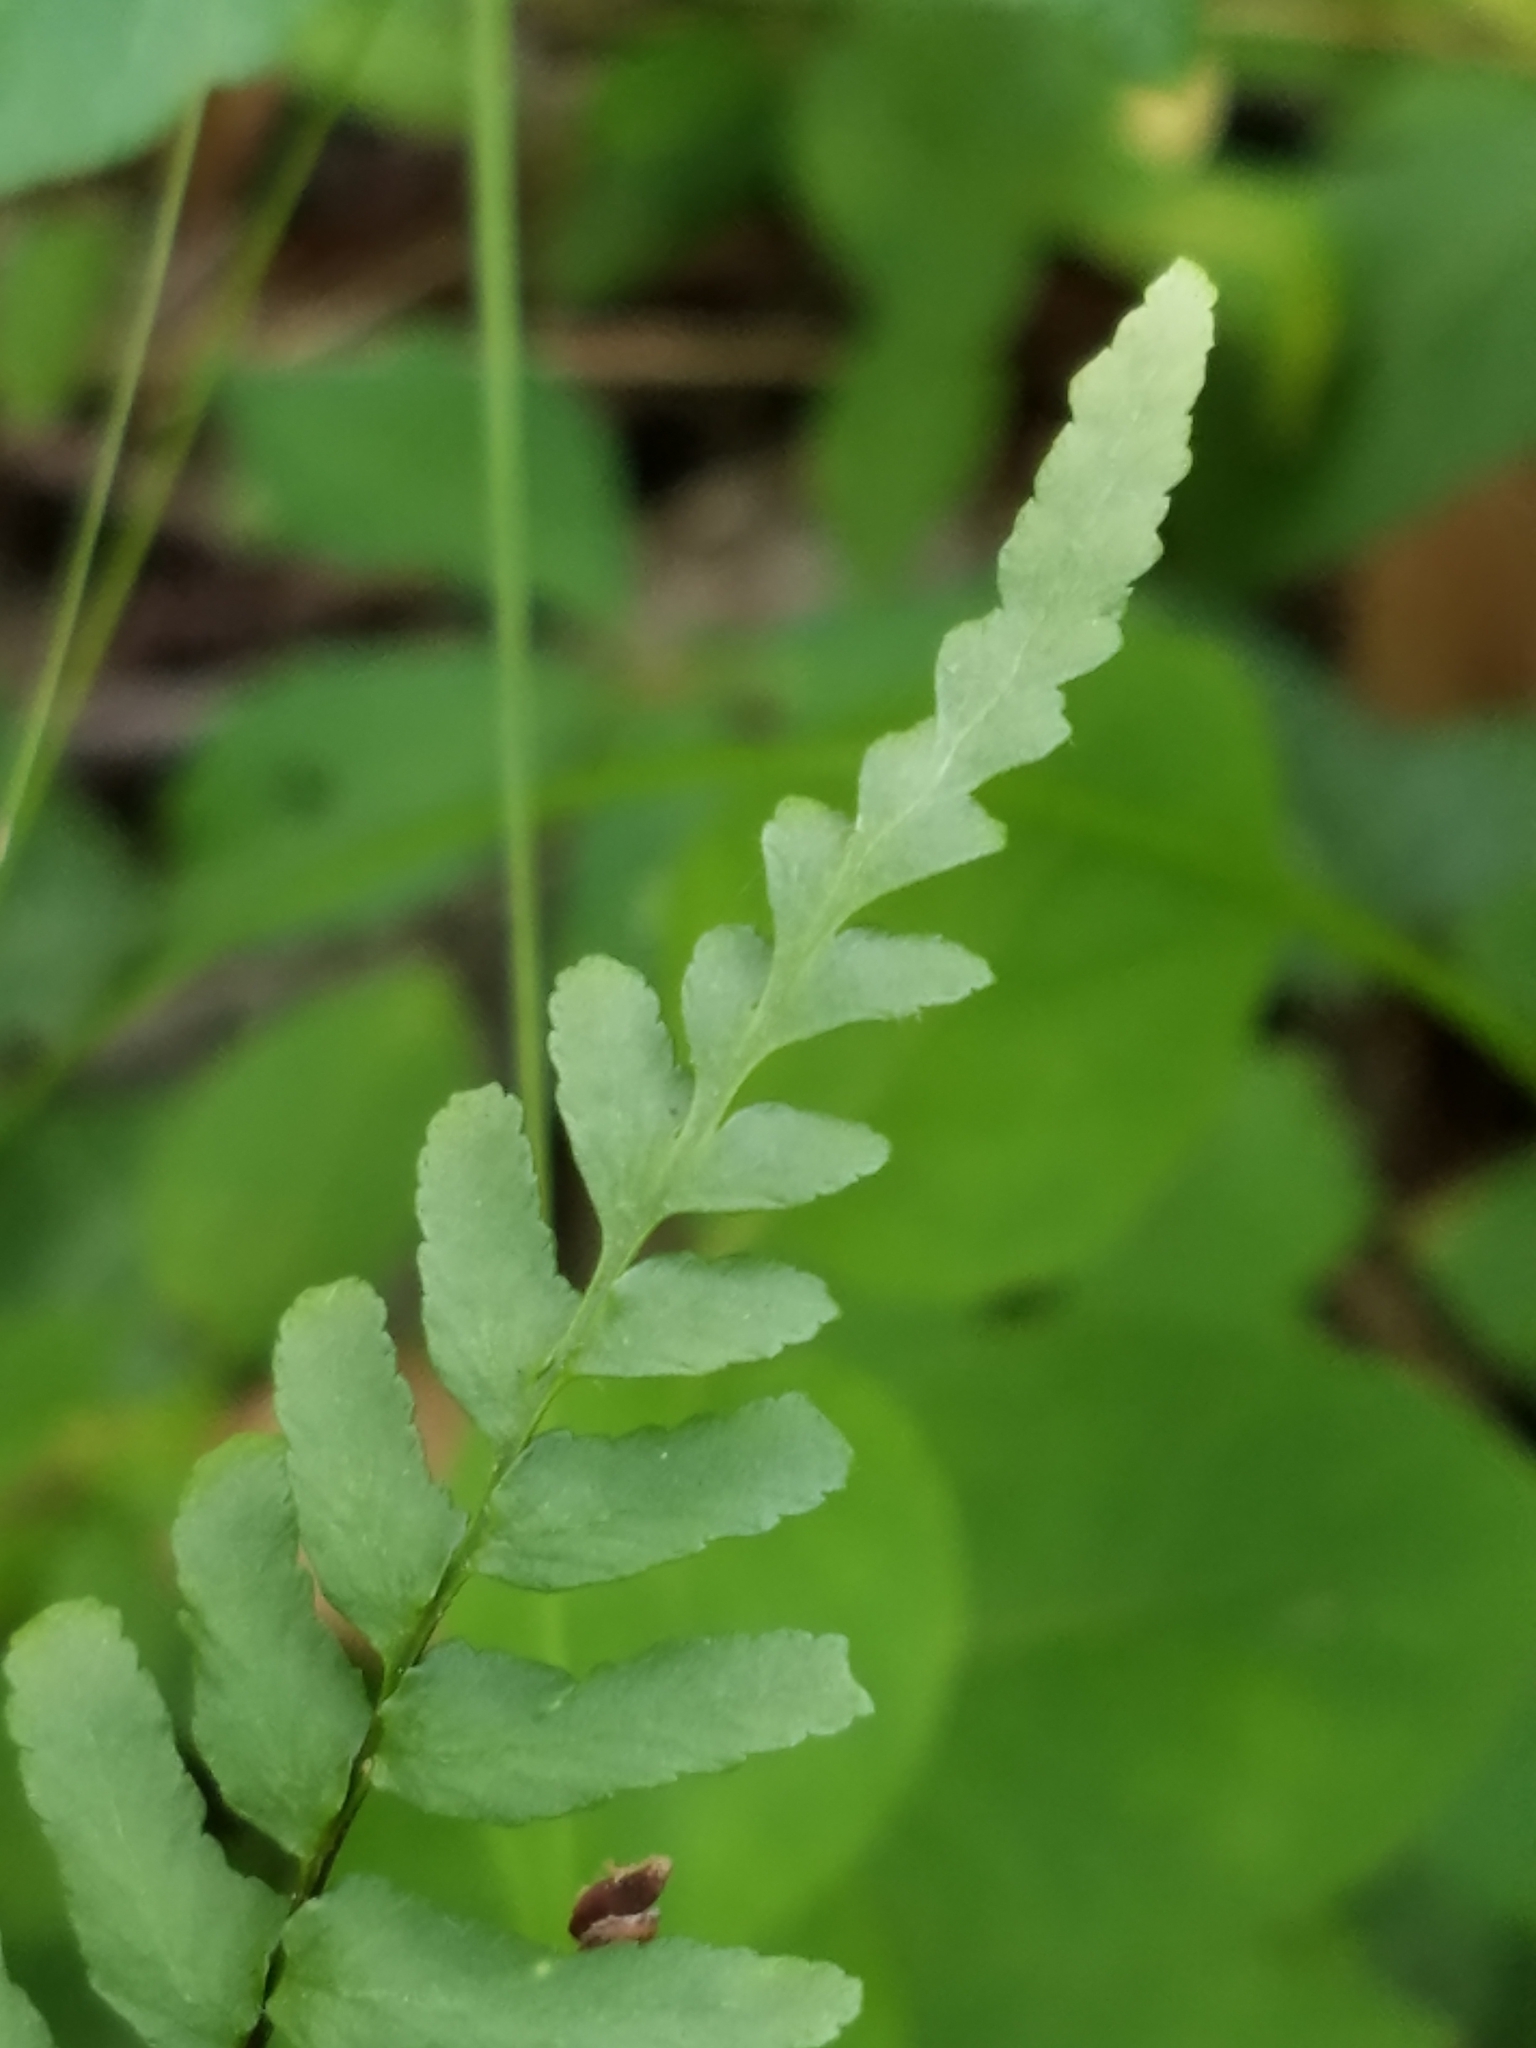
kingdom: Plantae
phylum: Tracheophyta
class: Polypodiopsida
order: Polypodiales
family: Aspleniaceae
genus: Asplenium
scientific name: Asplenium platyneuron
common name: Ebony spleenwort
